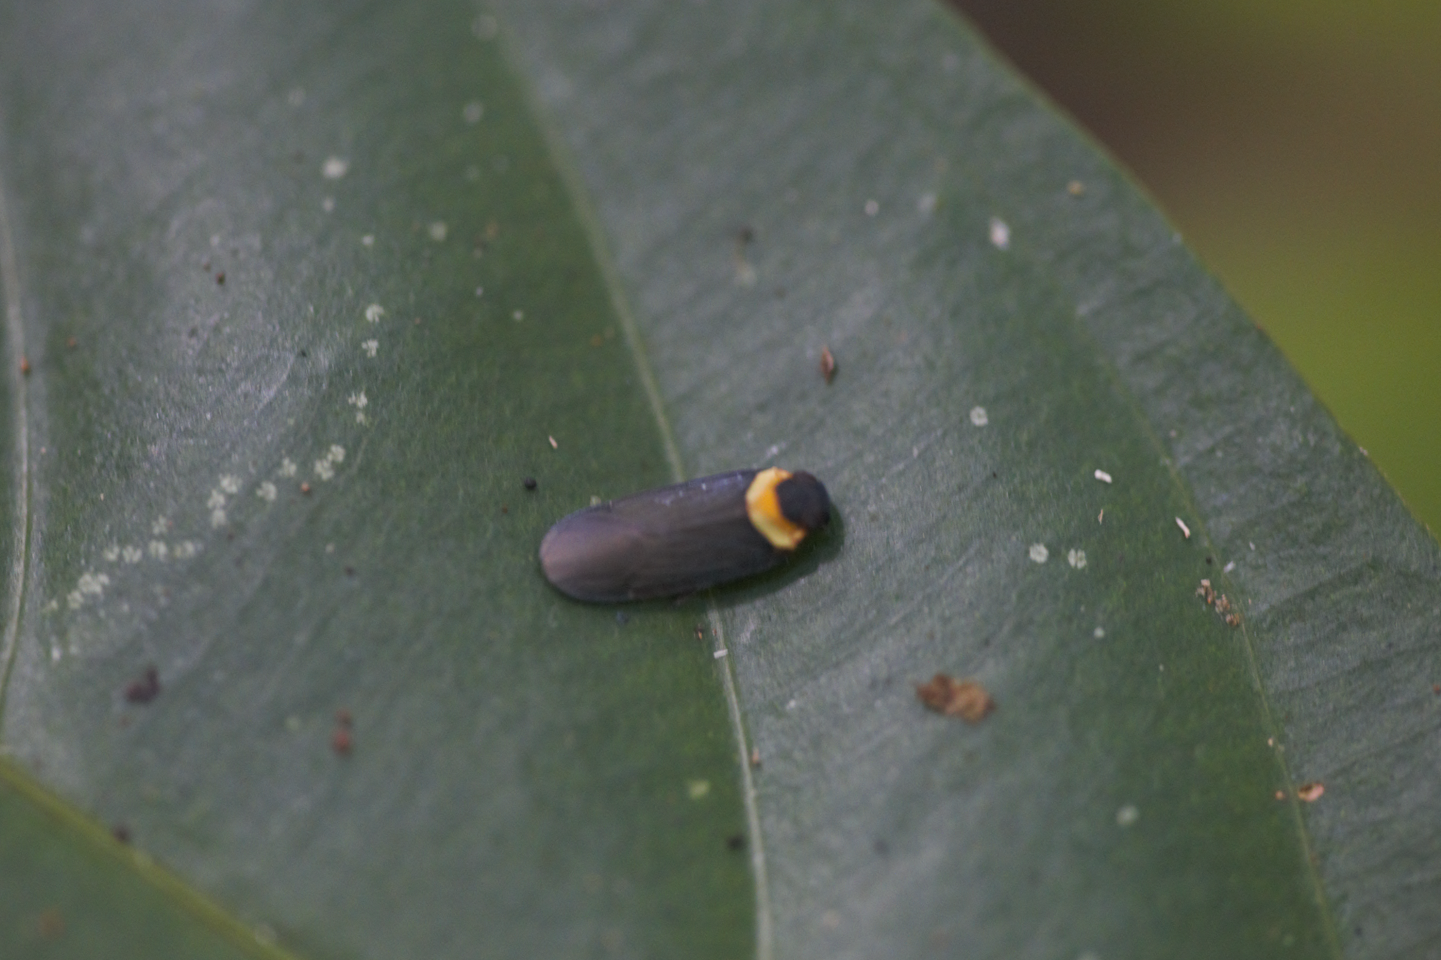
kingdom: Animalia
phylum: Arthropoda
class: Insecta
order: Hemiptera
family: Achilidae
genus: Plectoderes
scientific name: Plectoderes
